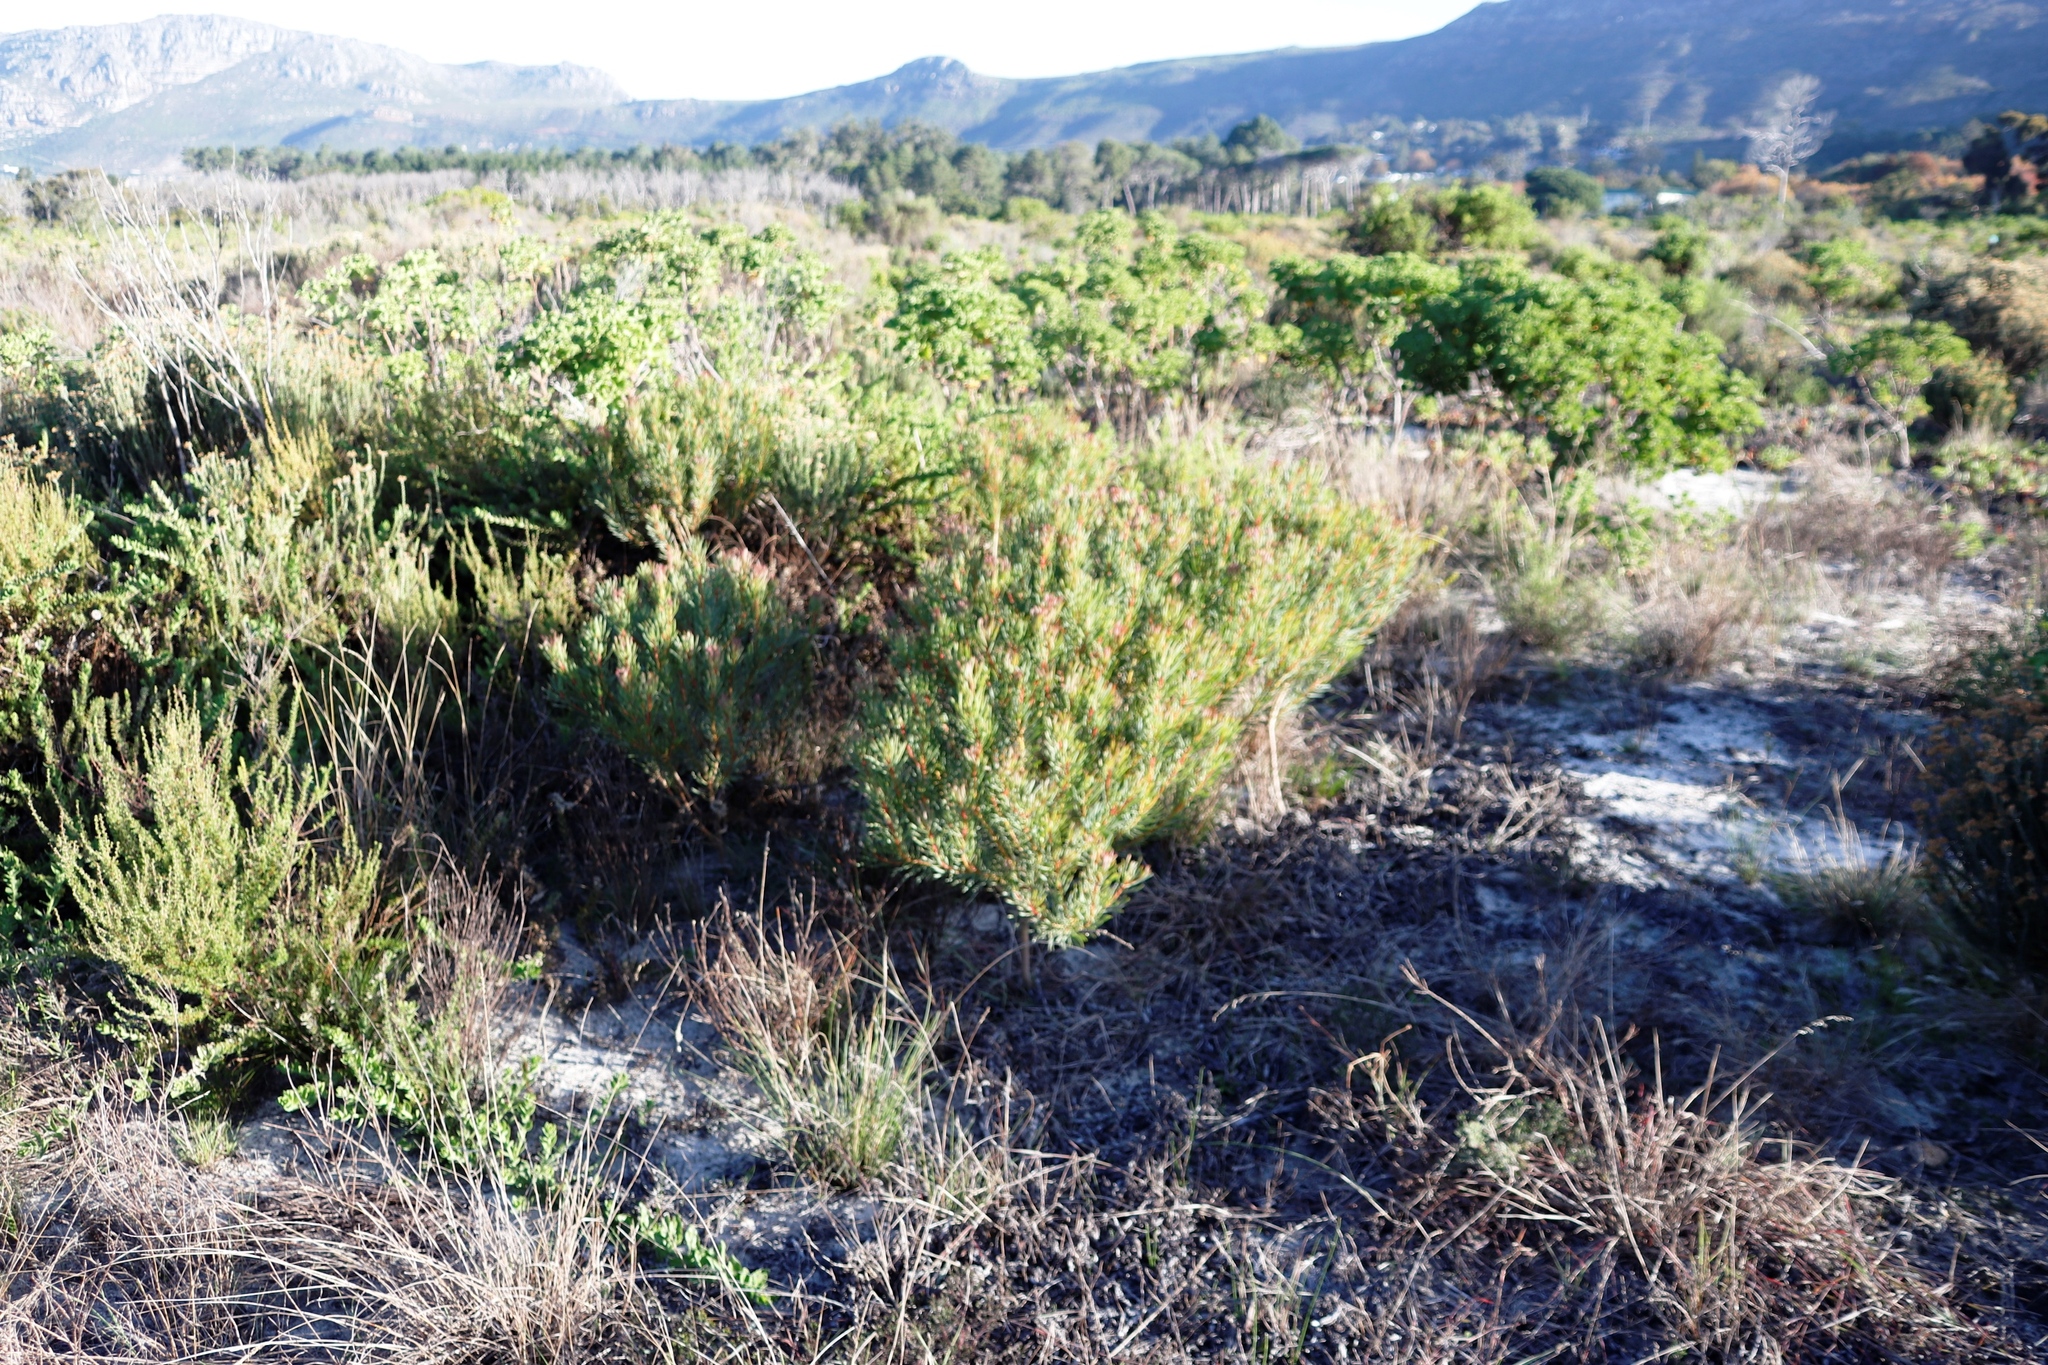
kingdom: Plantae
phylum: Tracheophyta
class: Magnoliopsida
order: Proteales
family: Proteaceae
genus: Protea
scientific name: Protea scolymocephala
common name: Thistle sugarbush
